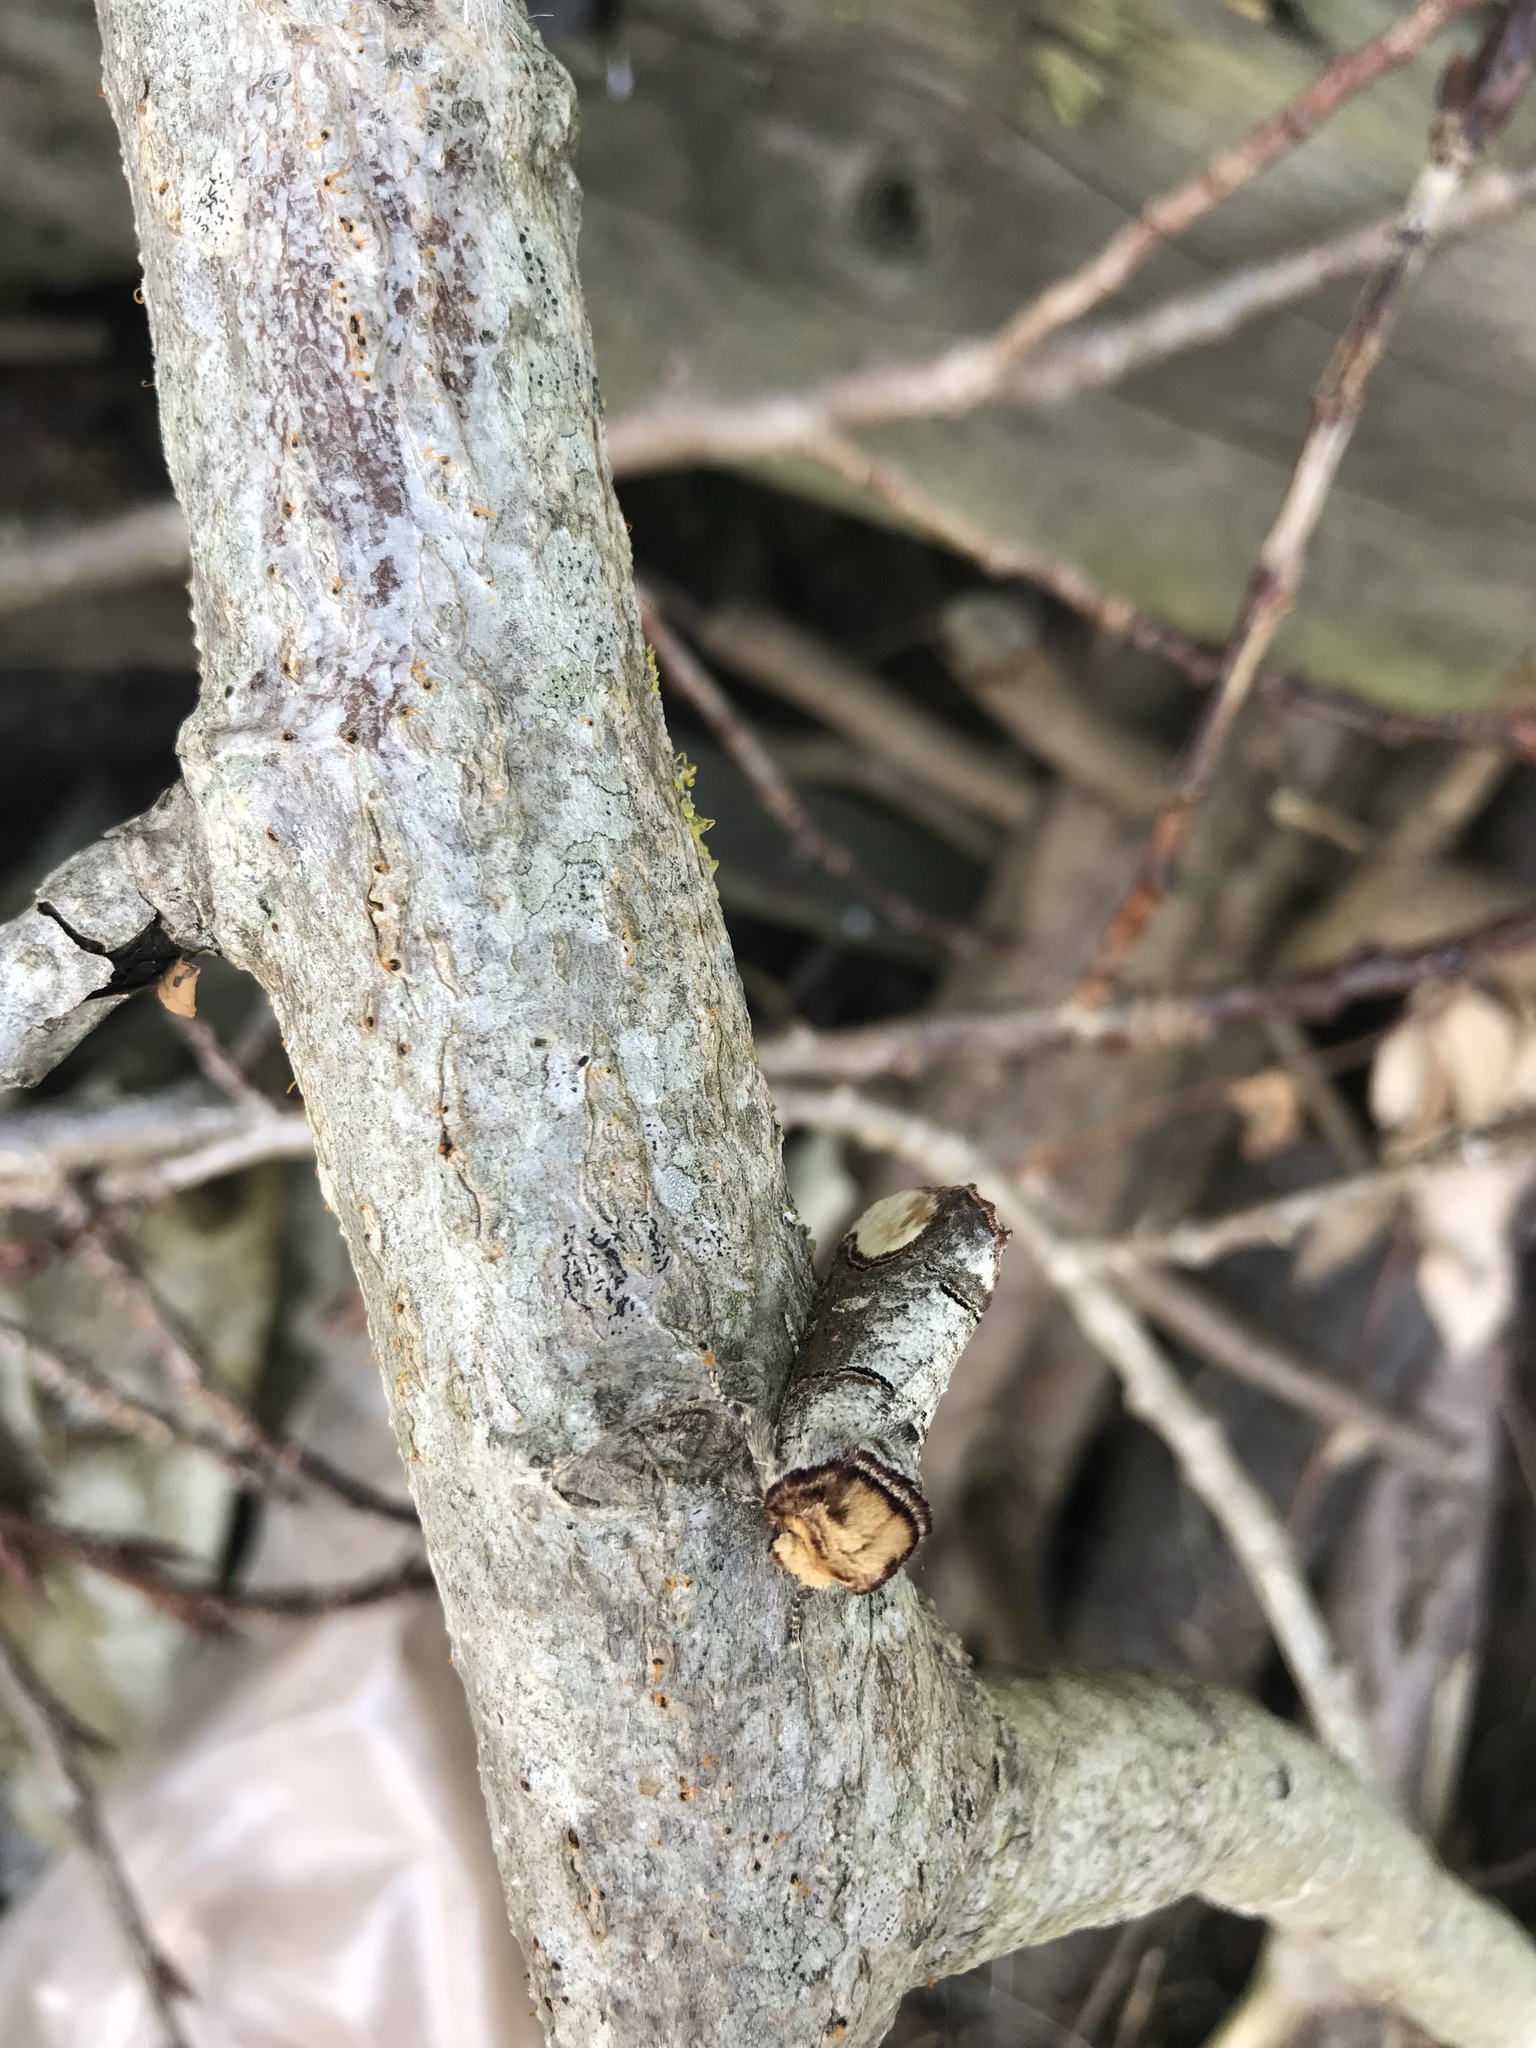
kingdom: Animalia
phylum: Arthropoda
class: Insecta
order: Lepidoptera
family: Notodontidae
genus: Phalera
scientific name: Phalera bucephala
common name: Buff-tip
